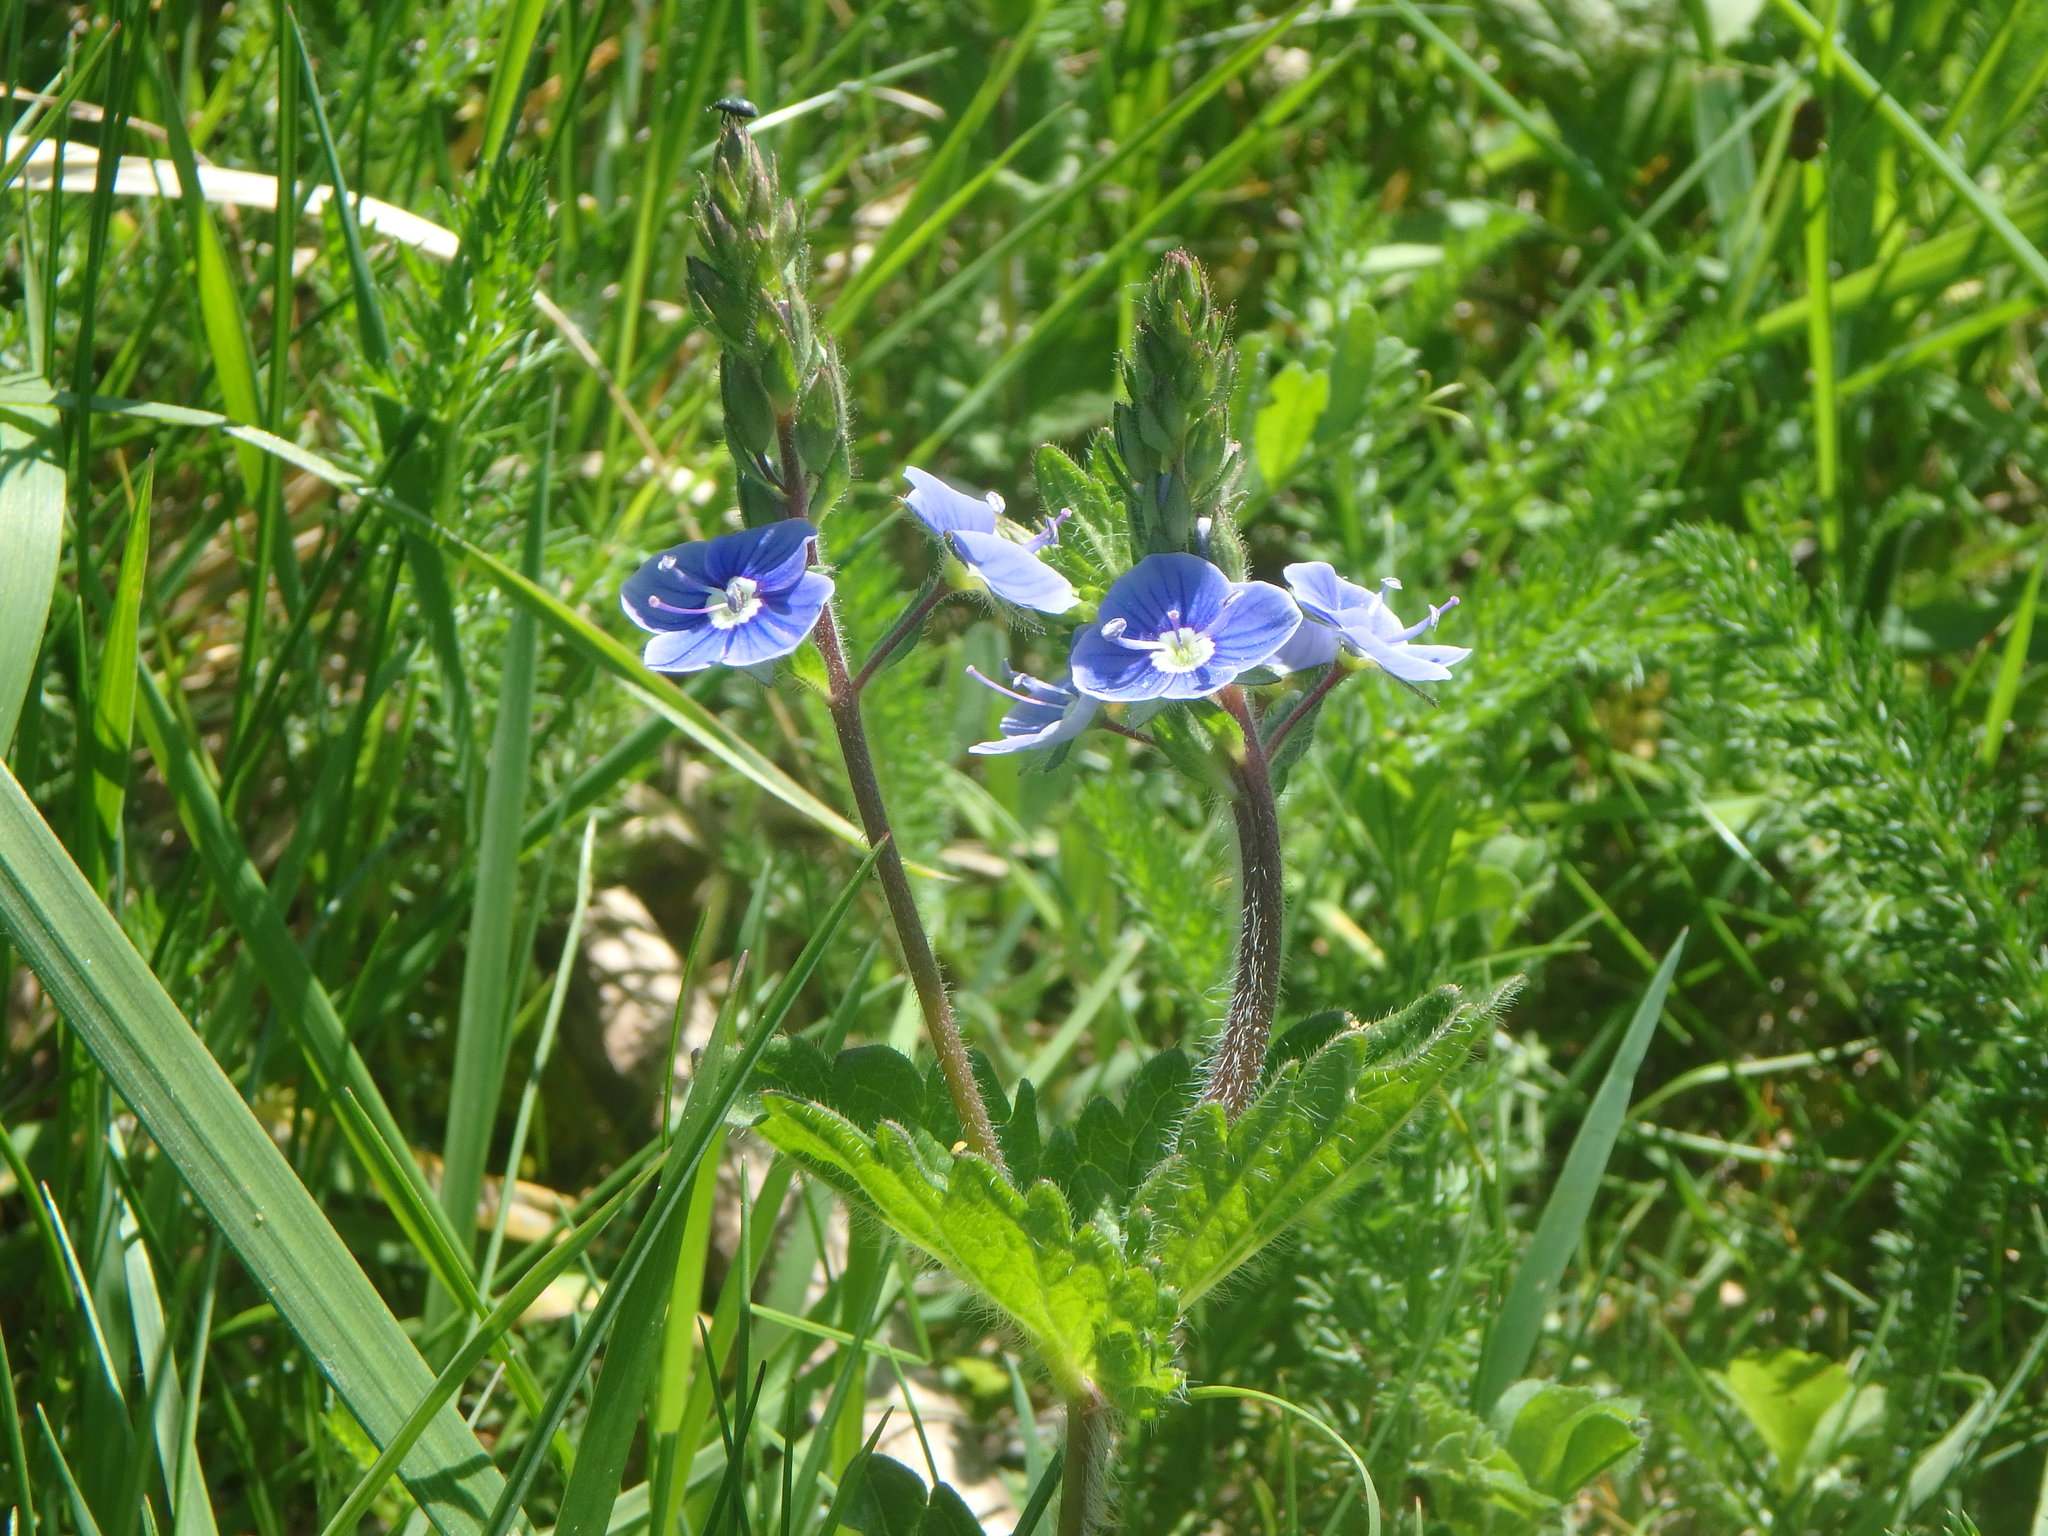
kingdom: Plantae
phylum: Tracheophyta
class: Magnoliopsida
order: Lamiales
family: Plantaginaceae
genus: Veronica
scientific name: Veronica chamaedrys
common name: Germander speedwell
